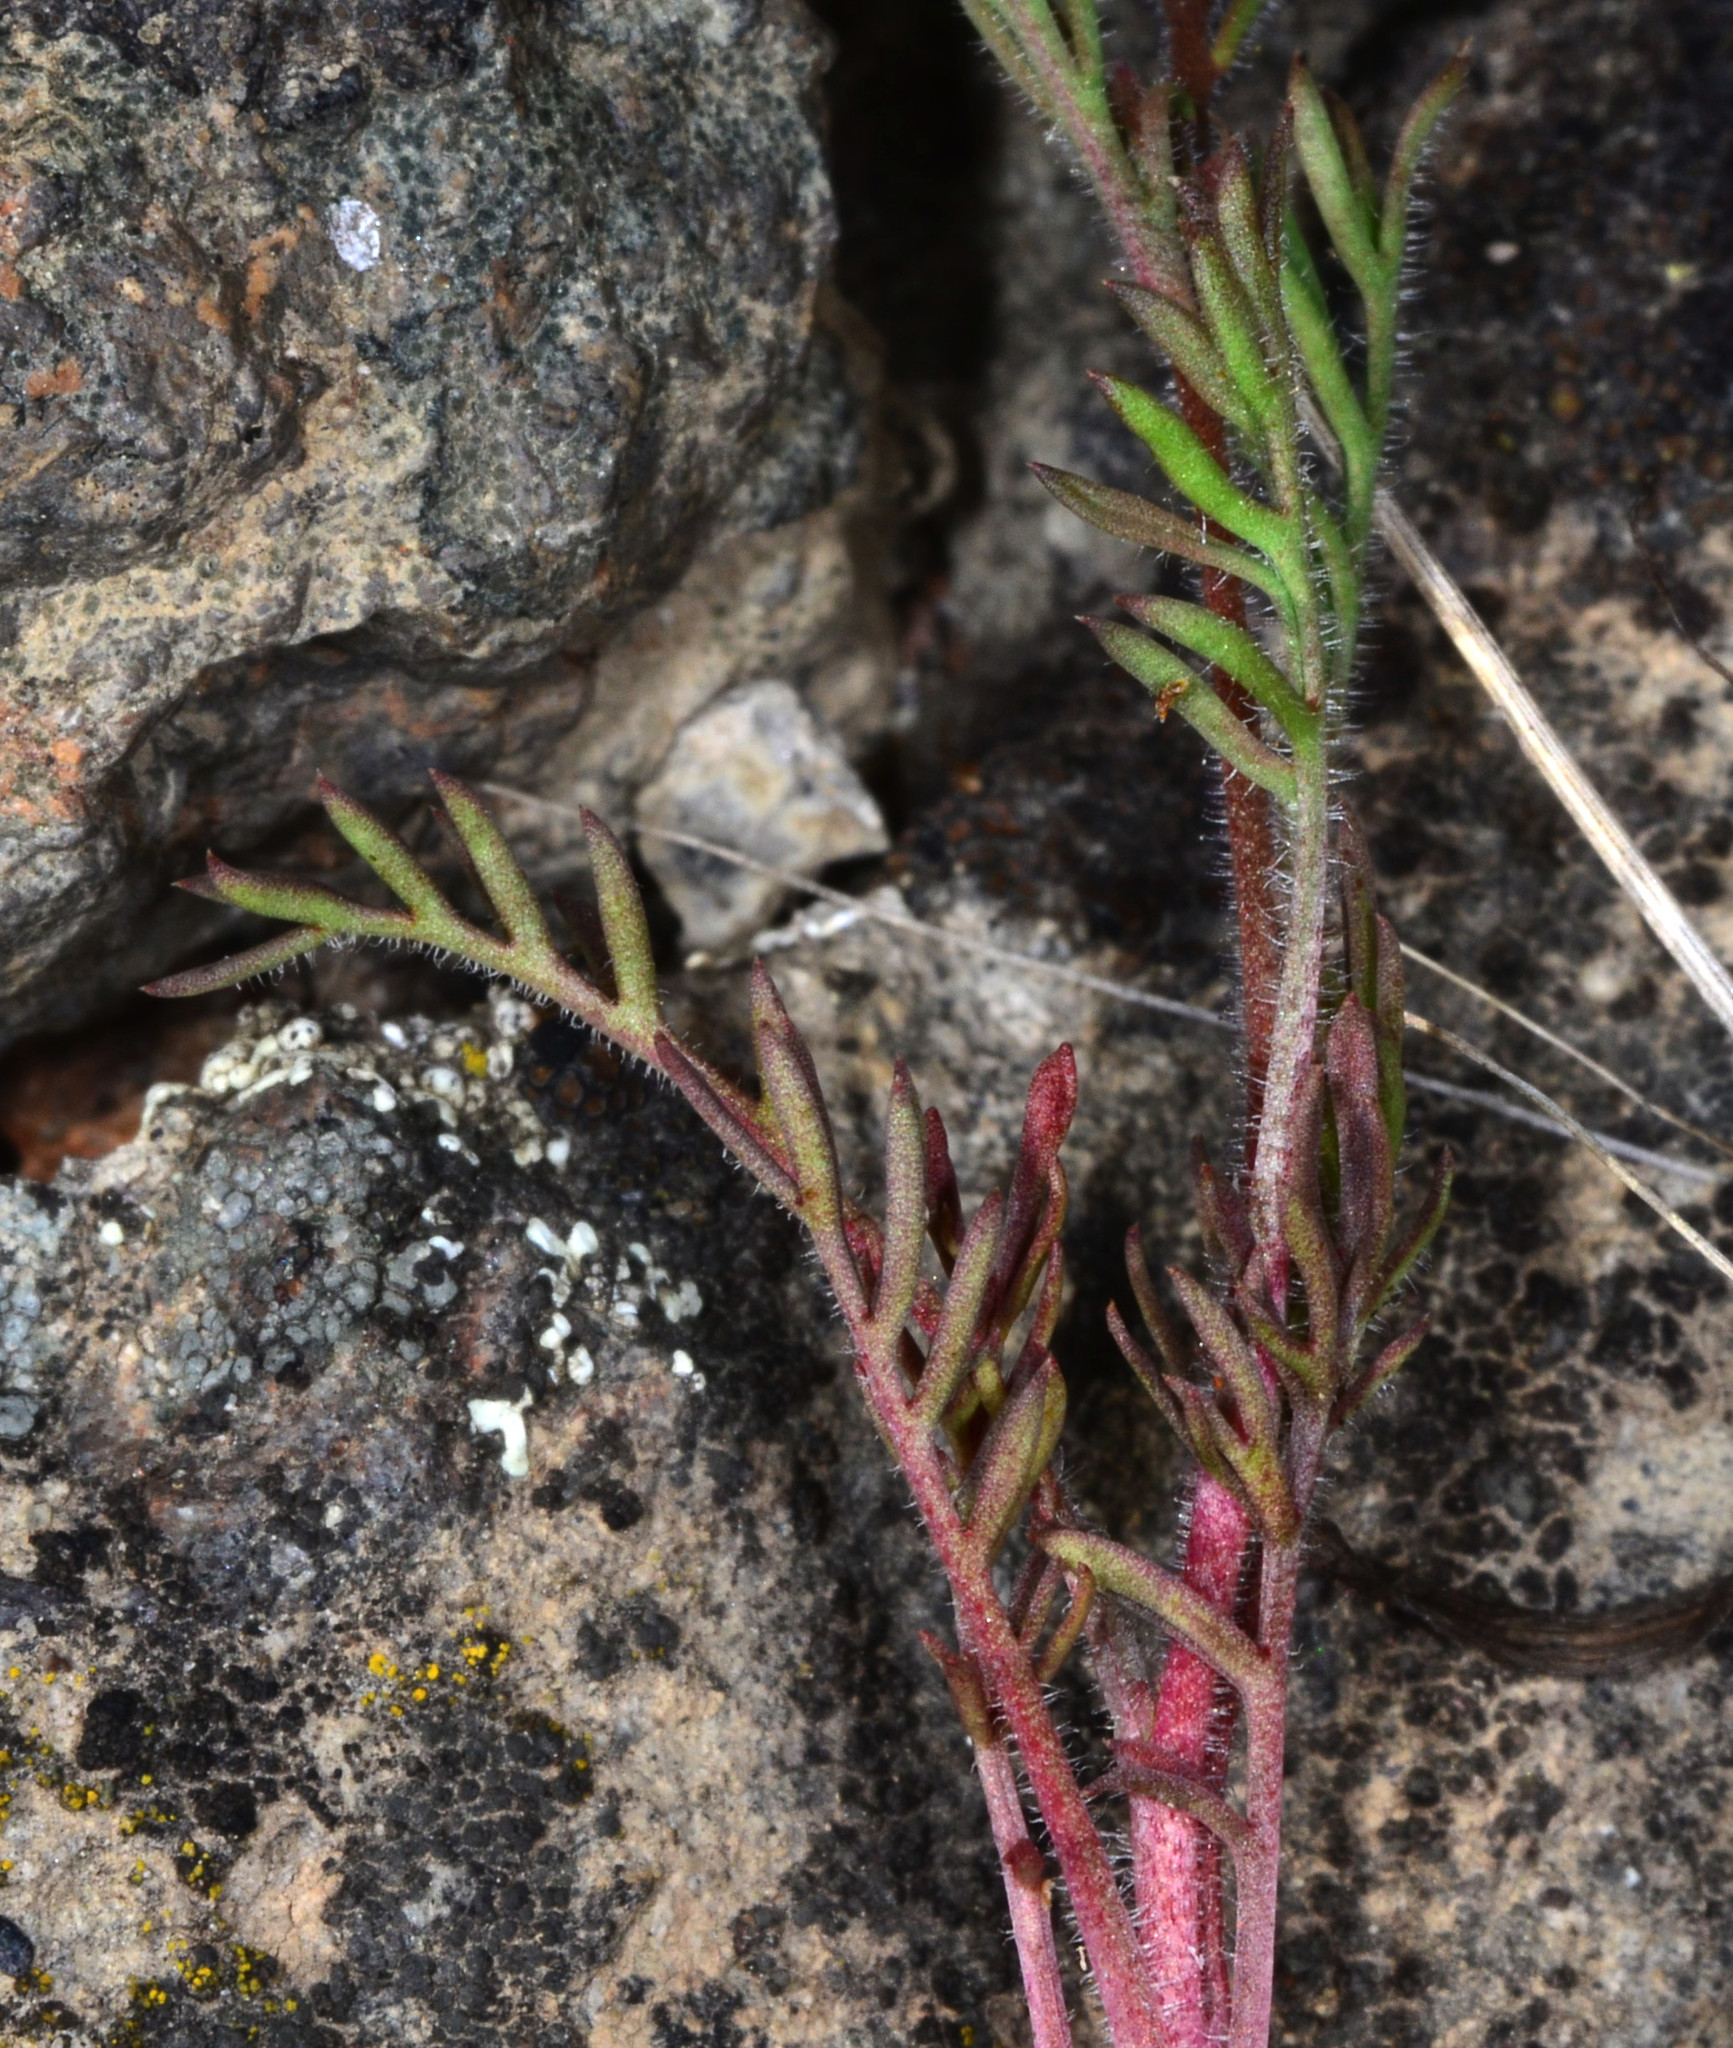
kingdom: Plantae
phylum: Tracheophyta
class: Magnoliopsida
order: Ericales
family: Polemoniaceae
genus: Gilia
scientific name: Gilia tricolor
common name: Bird's-eyes
